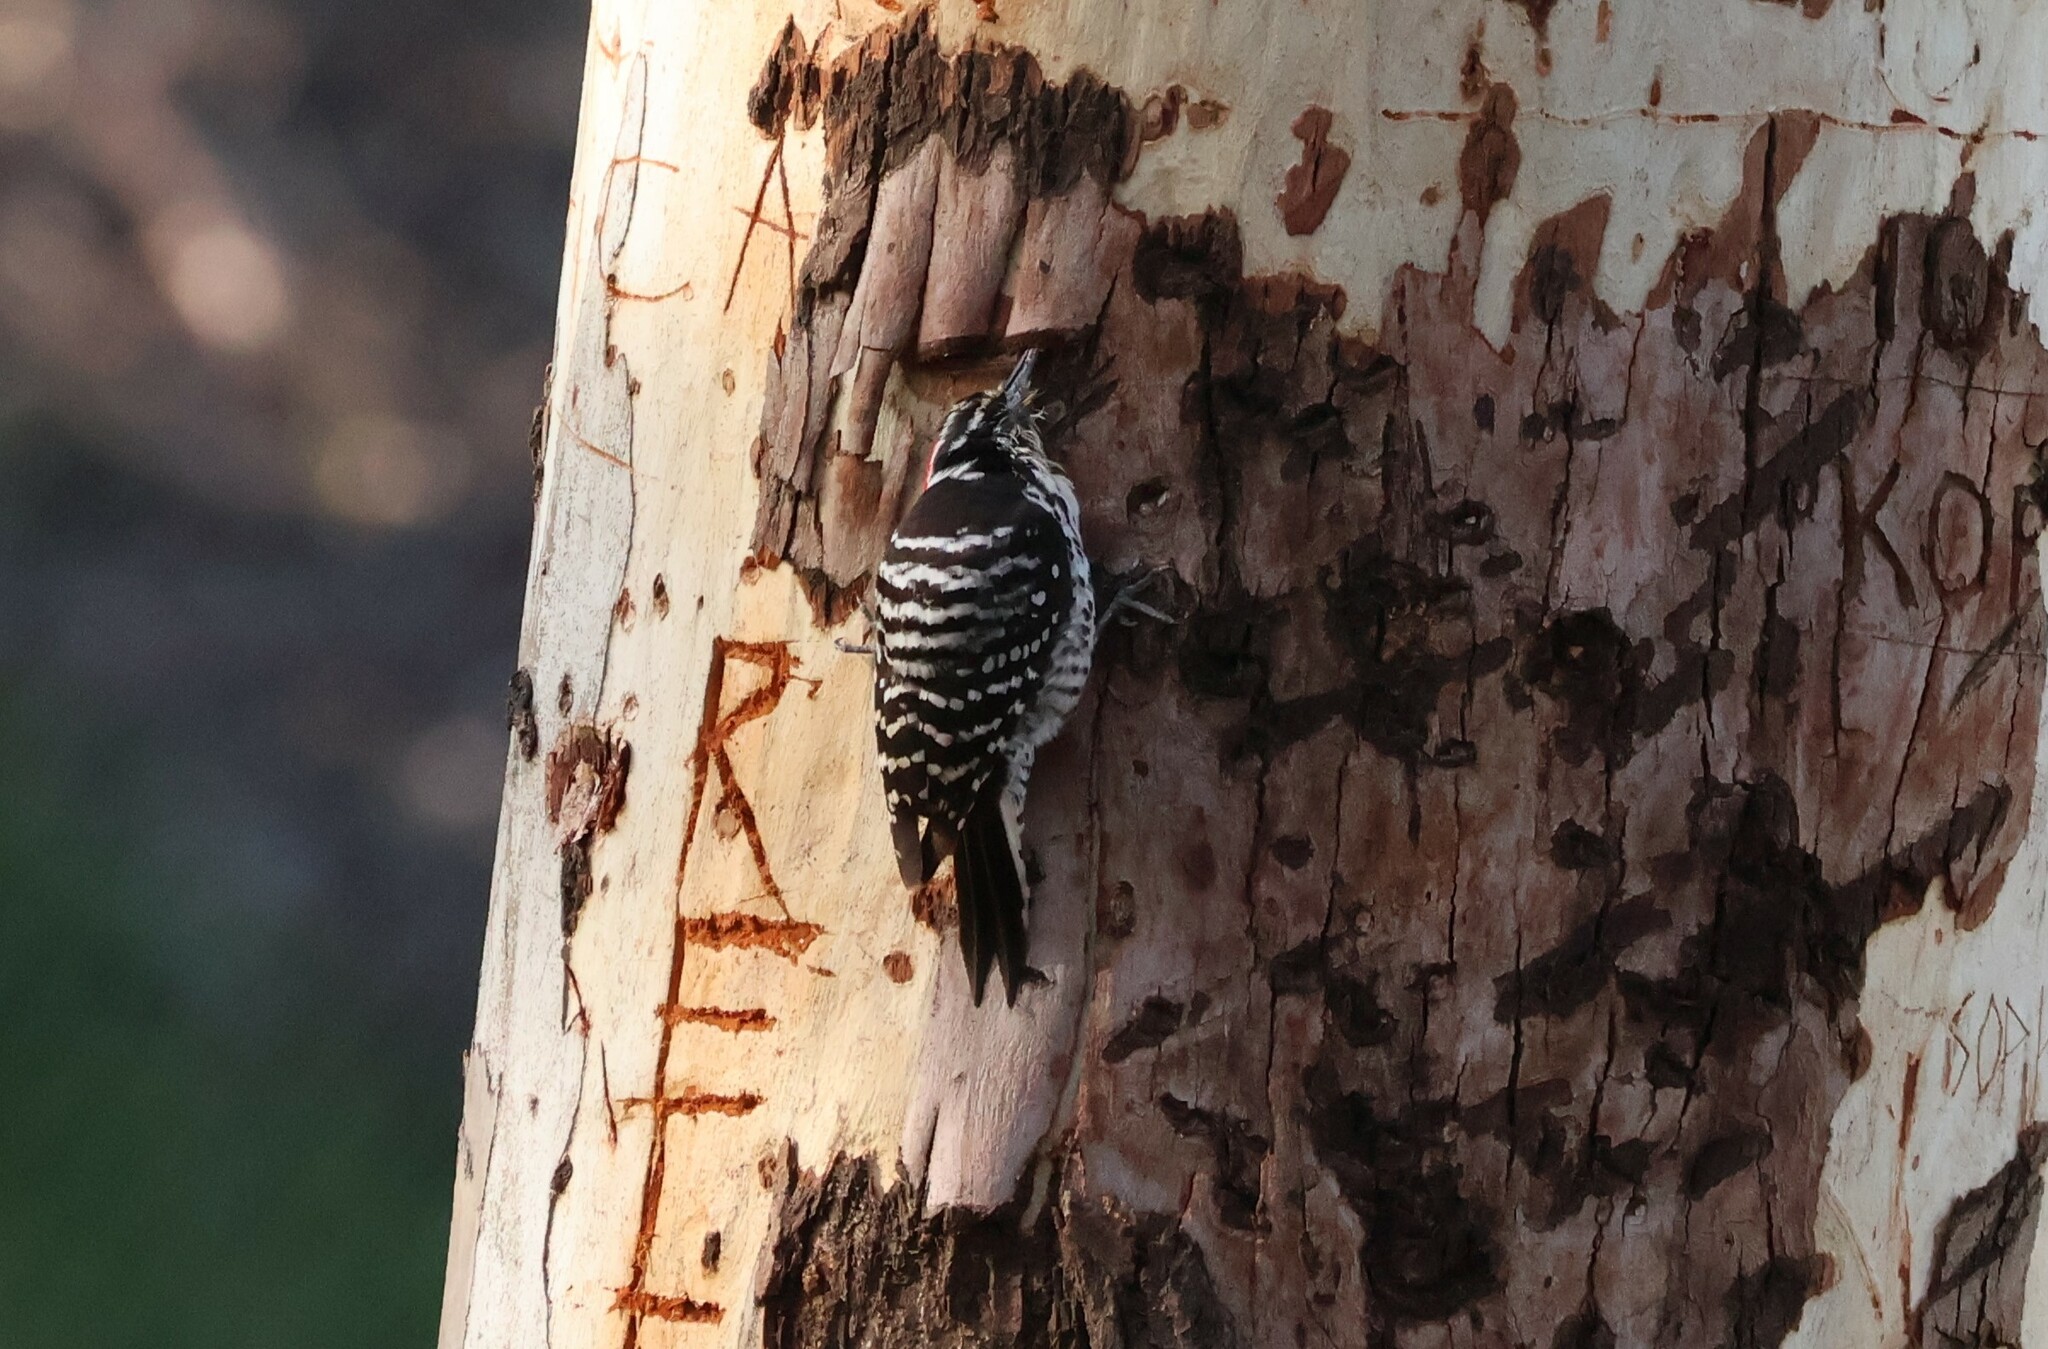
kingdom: Animalia
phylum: Chordata
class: Aves
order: Piciformes
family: Picidae
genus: Dryobates
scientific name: Dryobates nuttallii
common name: Nuttall's woodpecker
